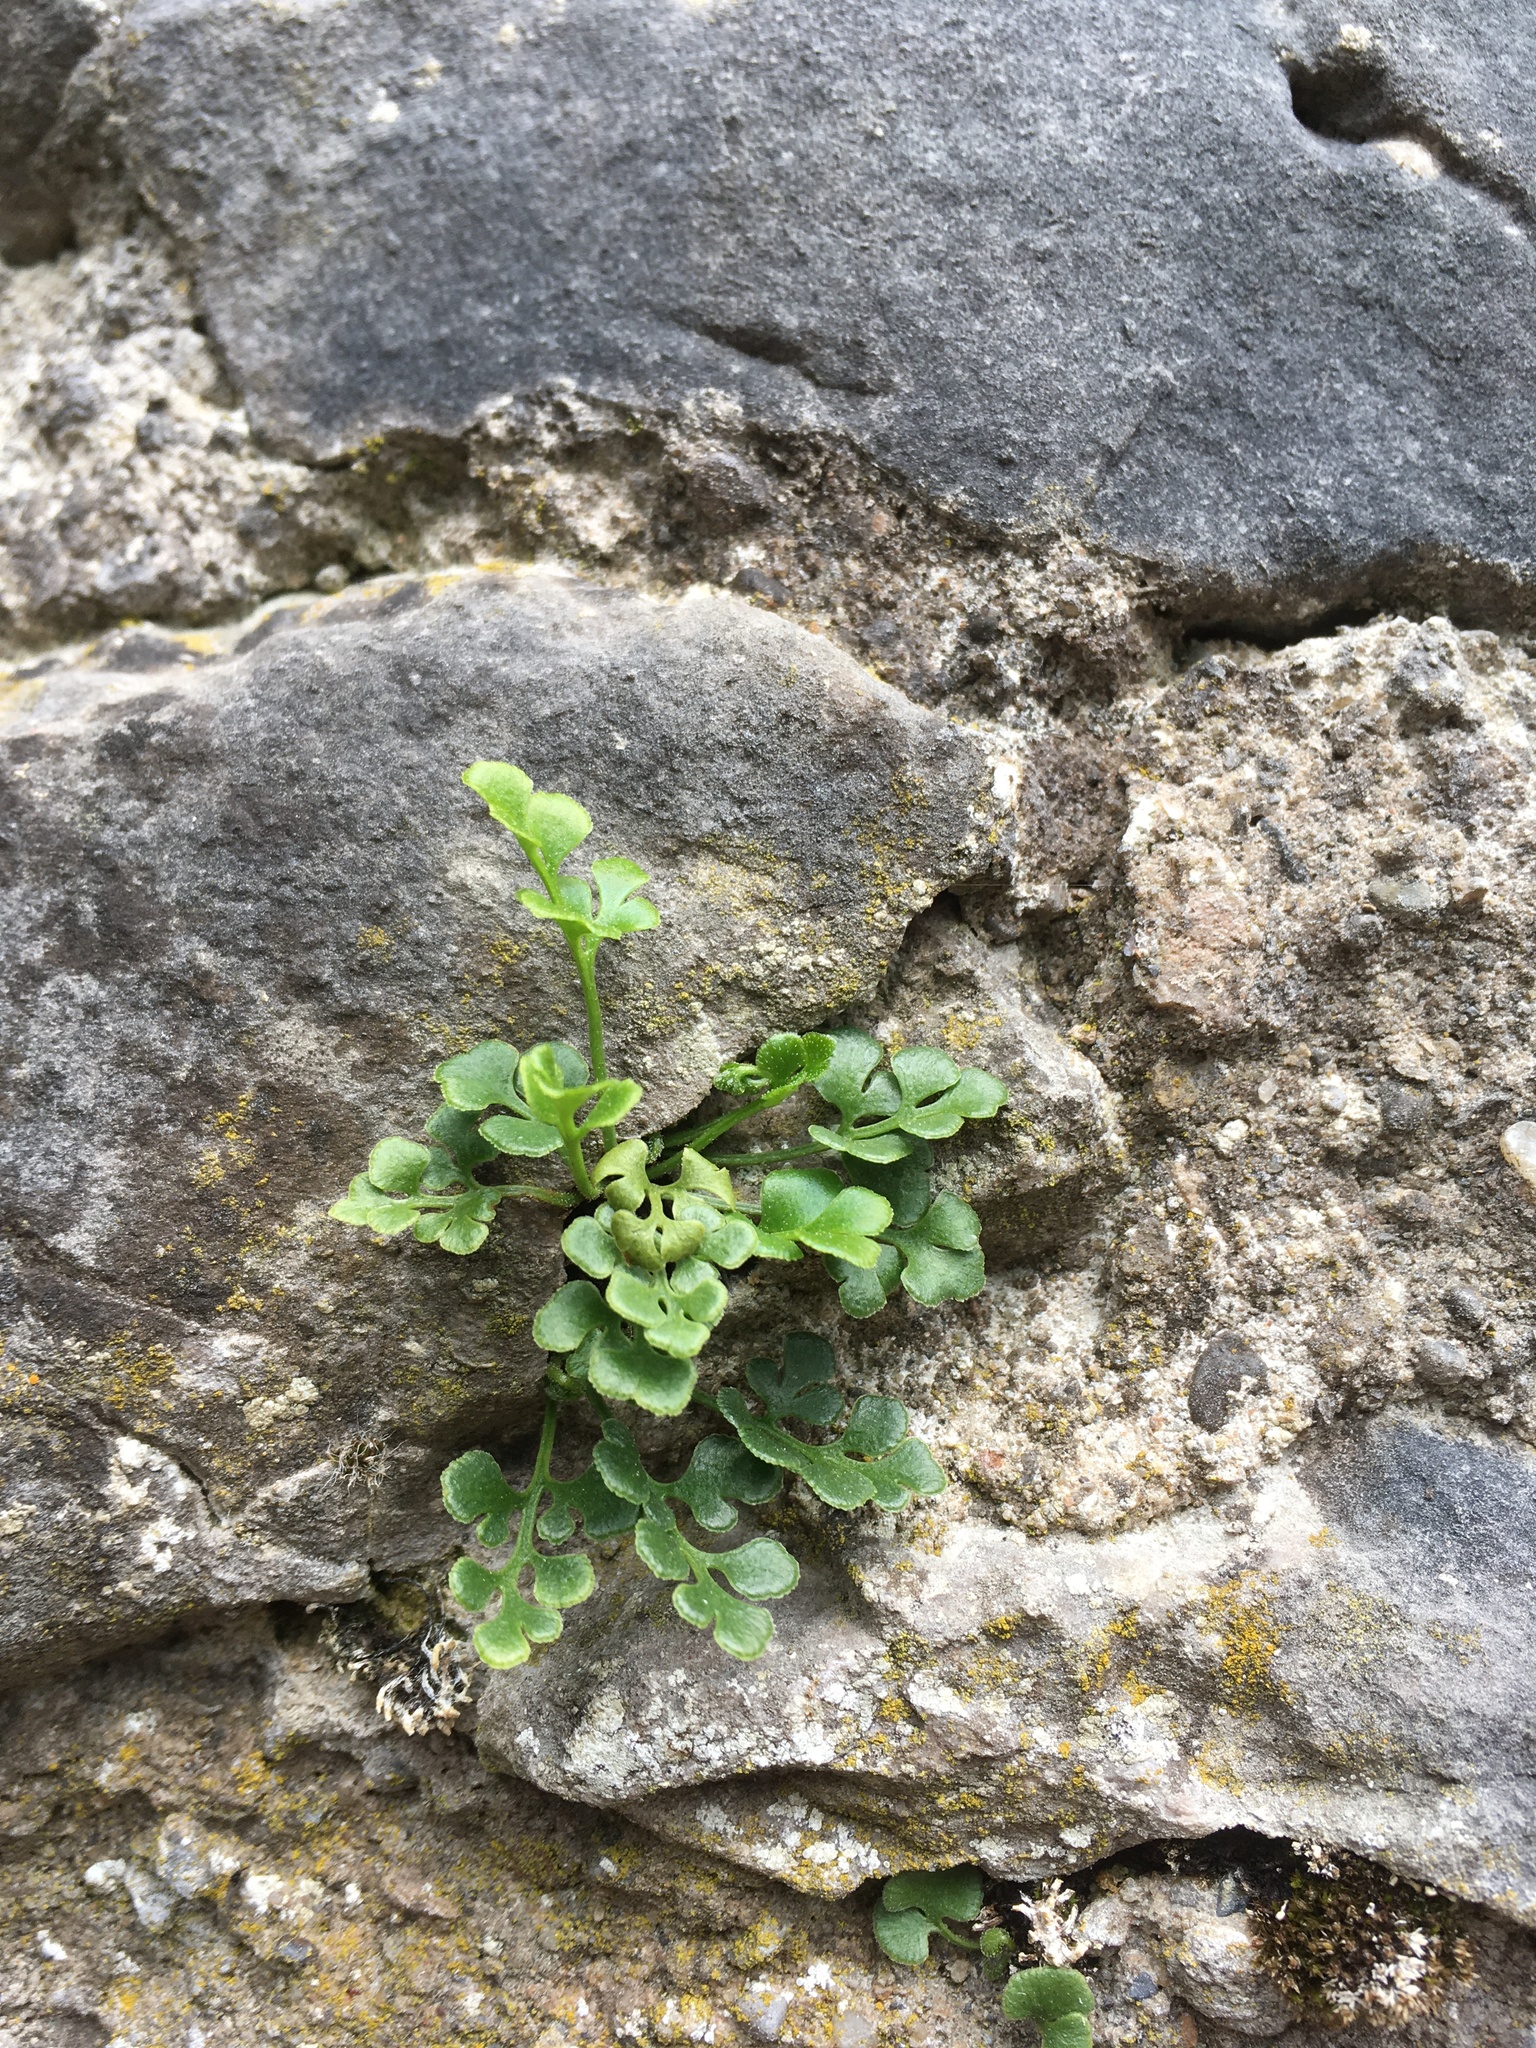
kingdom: Plantae
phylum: Tracheophyta
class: Polypodiopsida
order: Polypodiales
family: Aspleniaceae
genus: Asplenium
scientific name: Asplenium ruta-muraria
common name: Wall-rue
